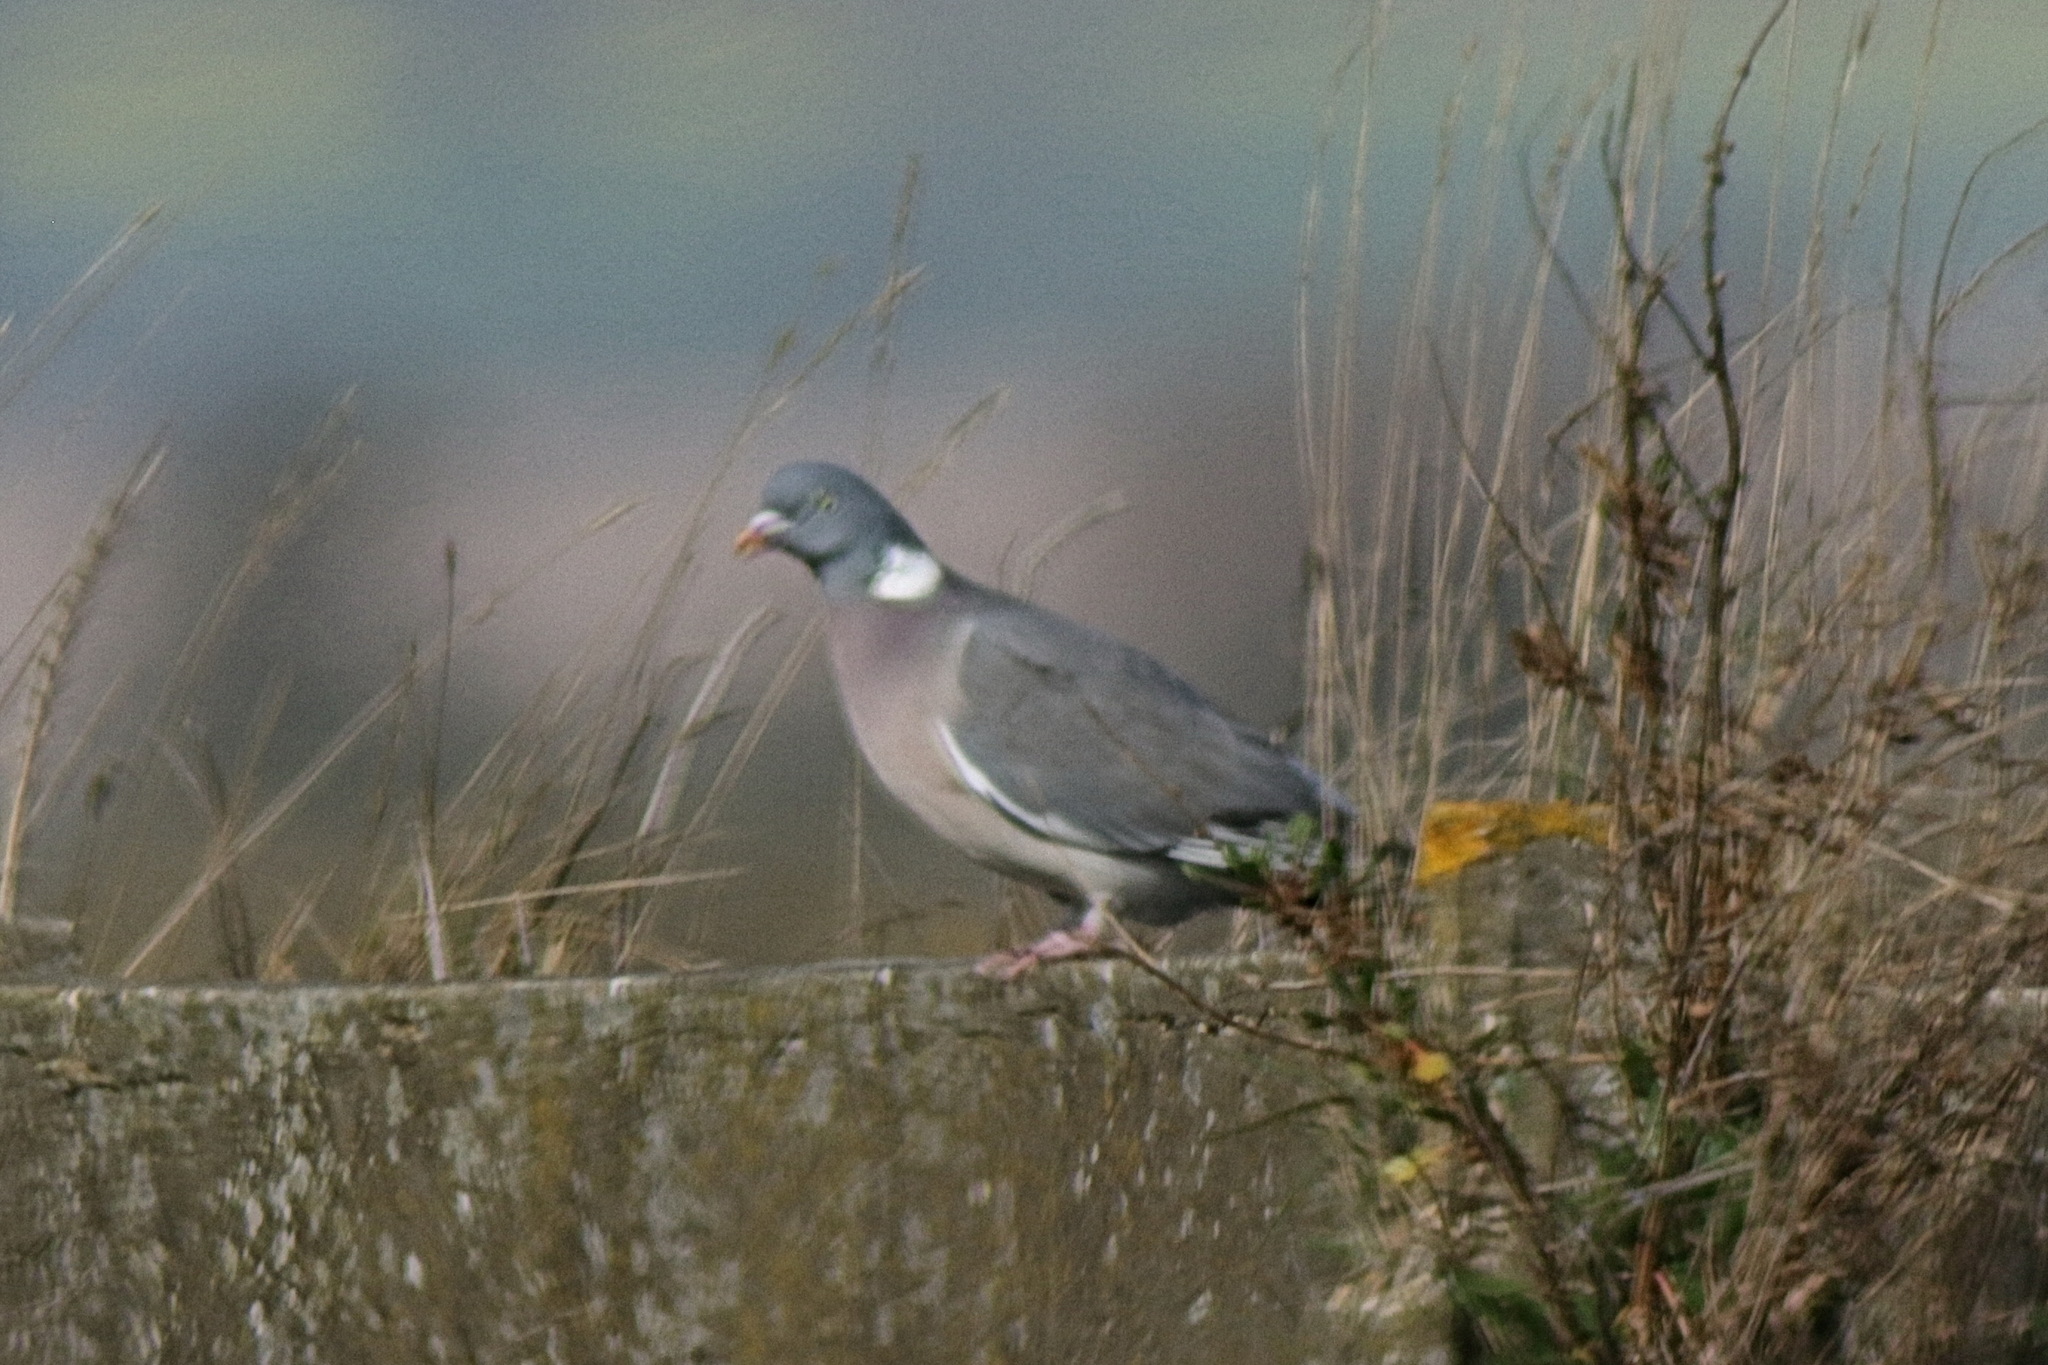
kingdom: Animalia
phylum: Chordata
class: Aves
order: Columbiformes
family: Columbidae
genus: Columba
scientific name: Columba palumbus
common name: Common wood pigeon
